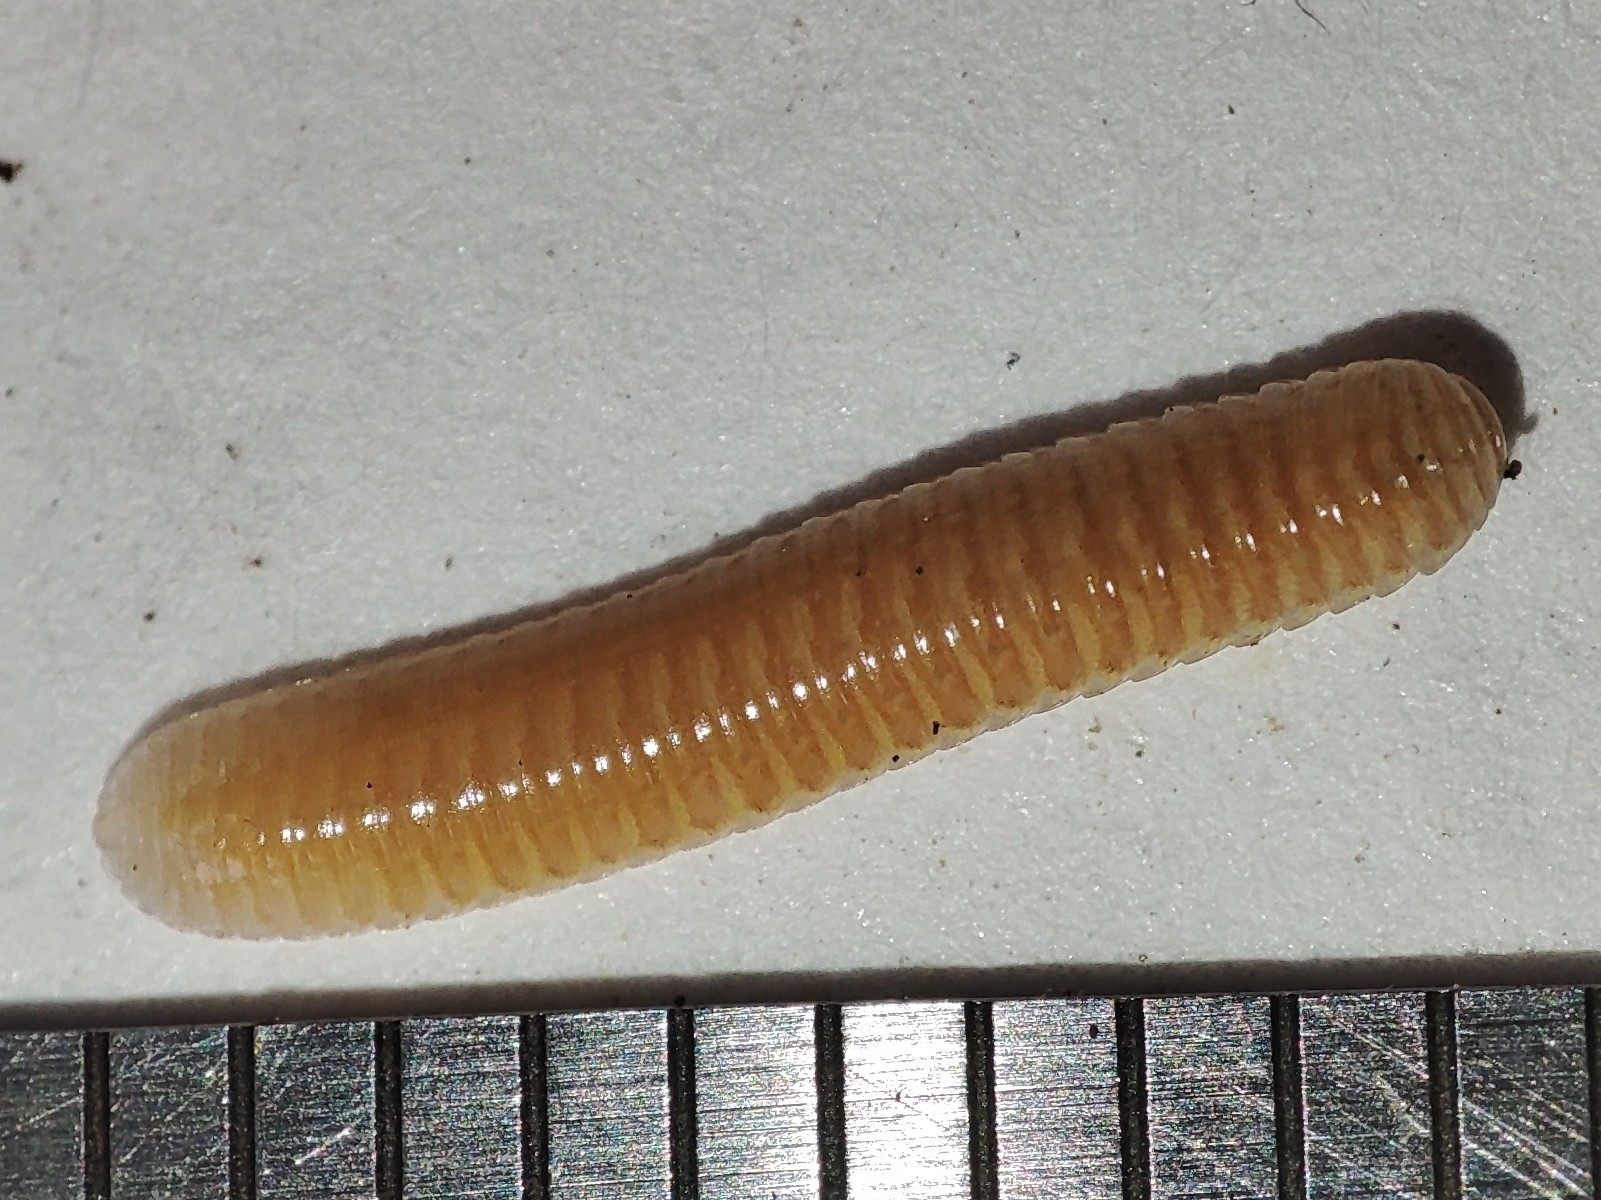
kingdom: Animalia
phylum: Arthropoda
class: Diplopoda
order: Polyzoniida
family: Polyzoniidae
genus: Polyzonium
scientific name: Polyzonium germanicum
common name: Boring millipede
